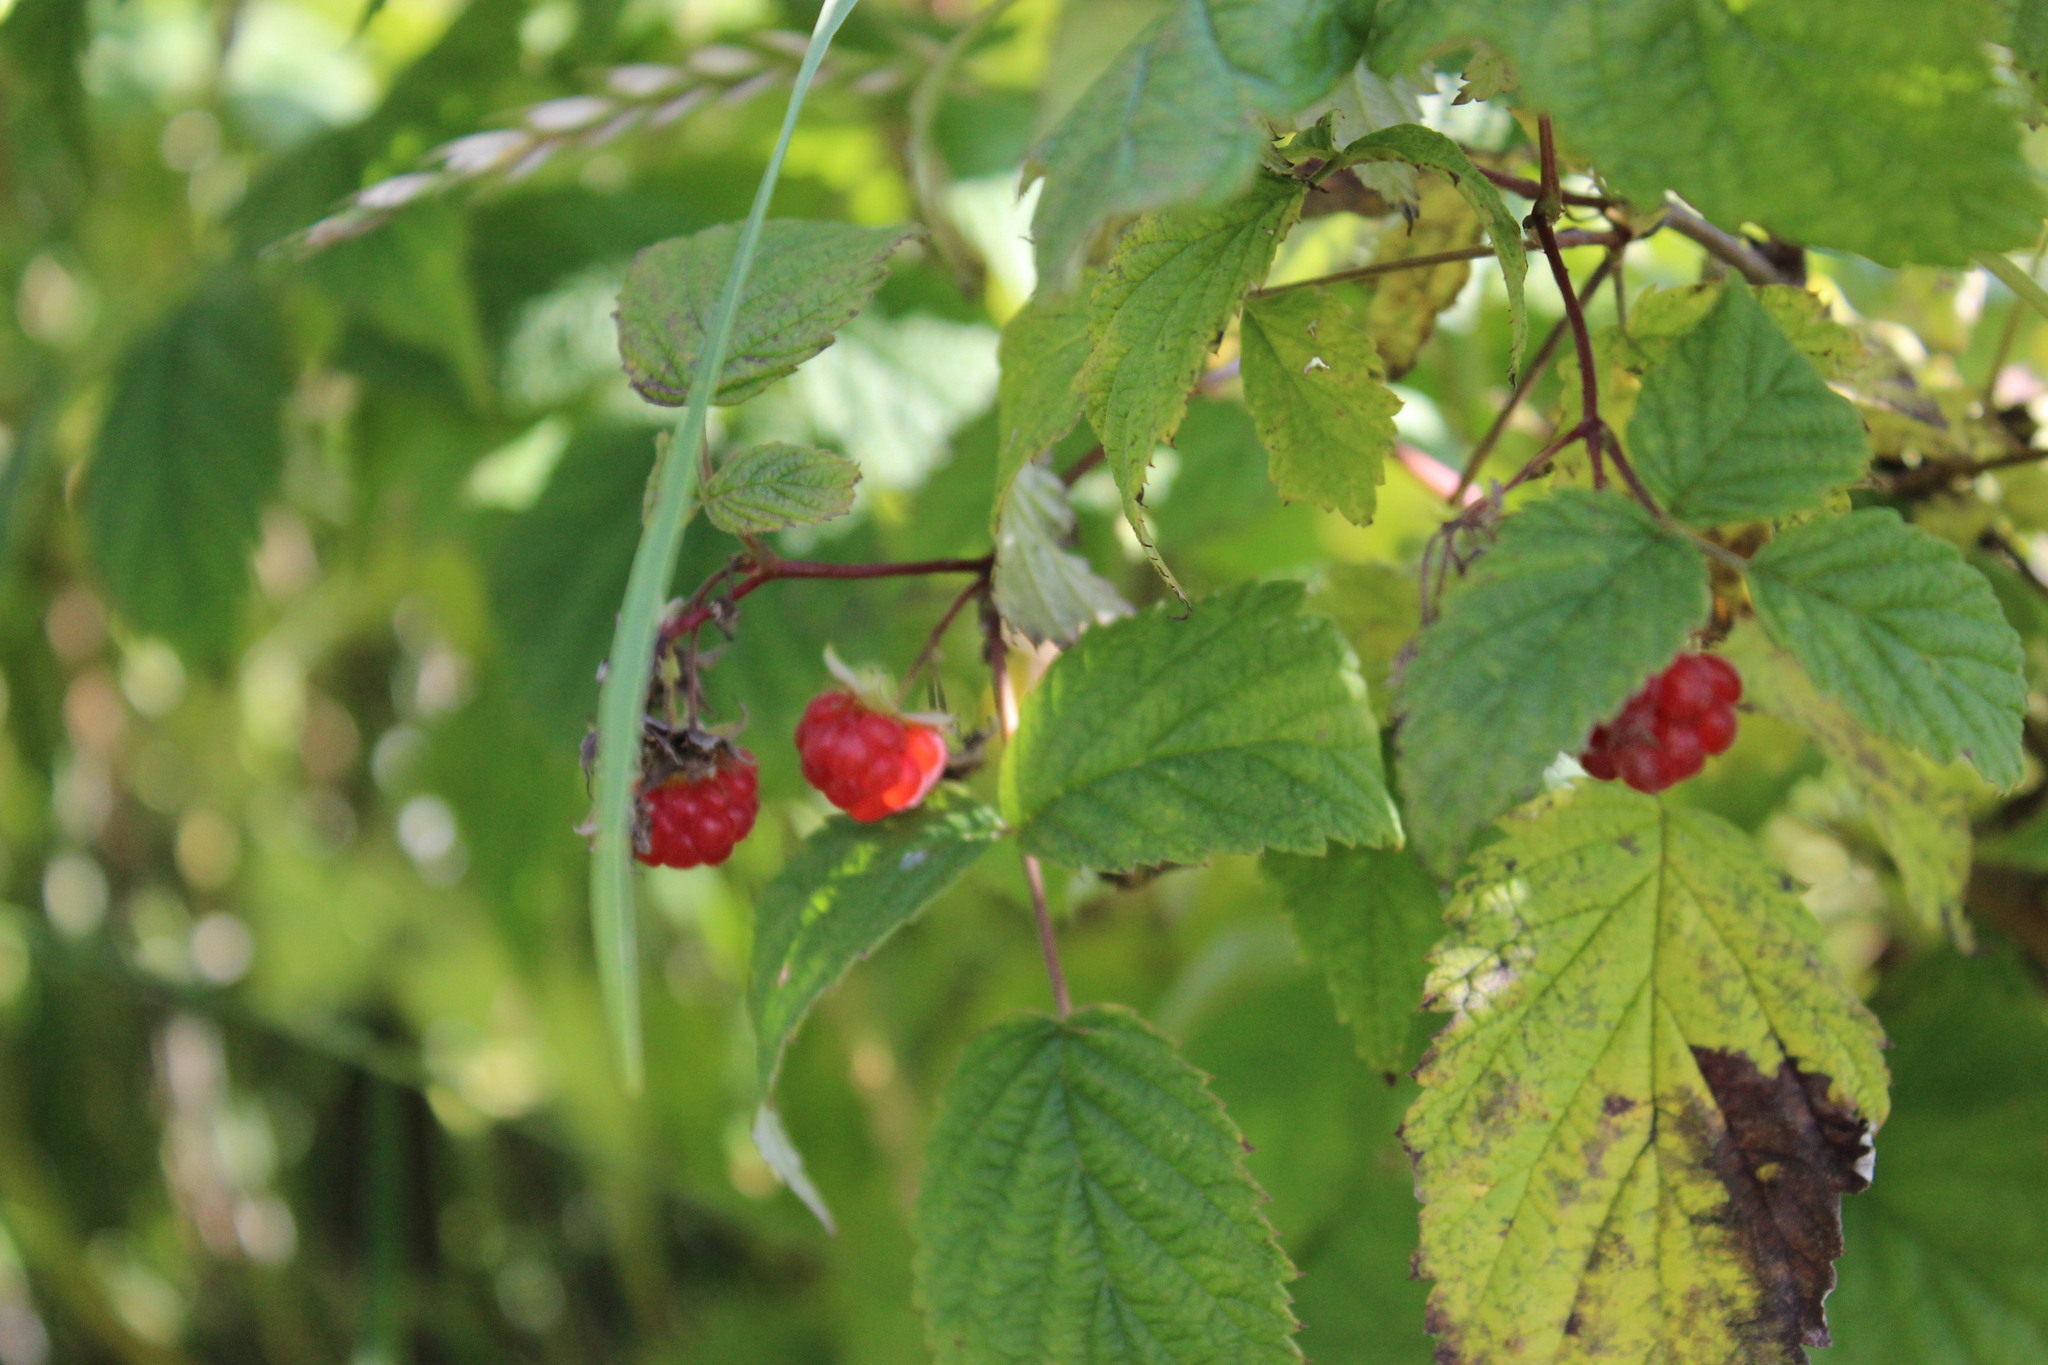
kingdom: Plantae
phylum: Tracheophyta
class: Magnoliopsida
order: Rosales
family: Rosaceae
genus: Rubus
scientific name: Rubus idaeus
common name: Raspberry
